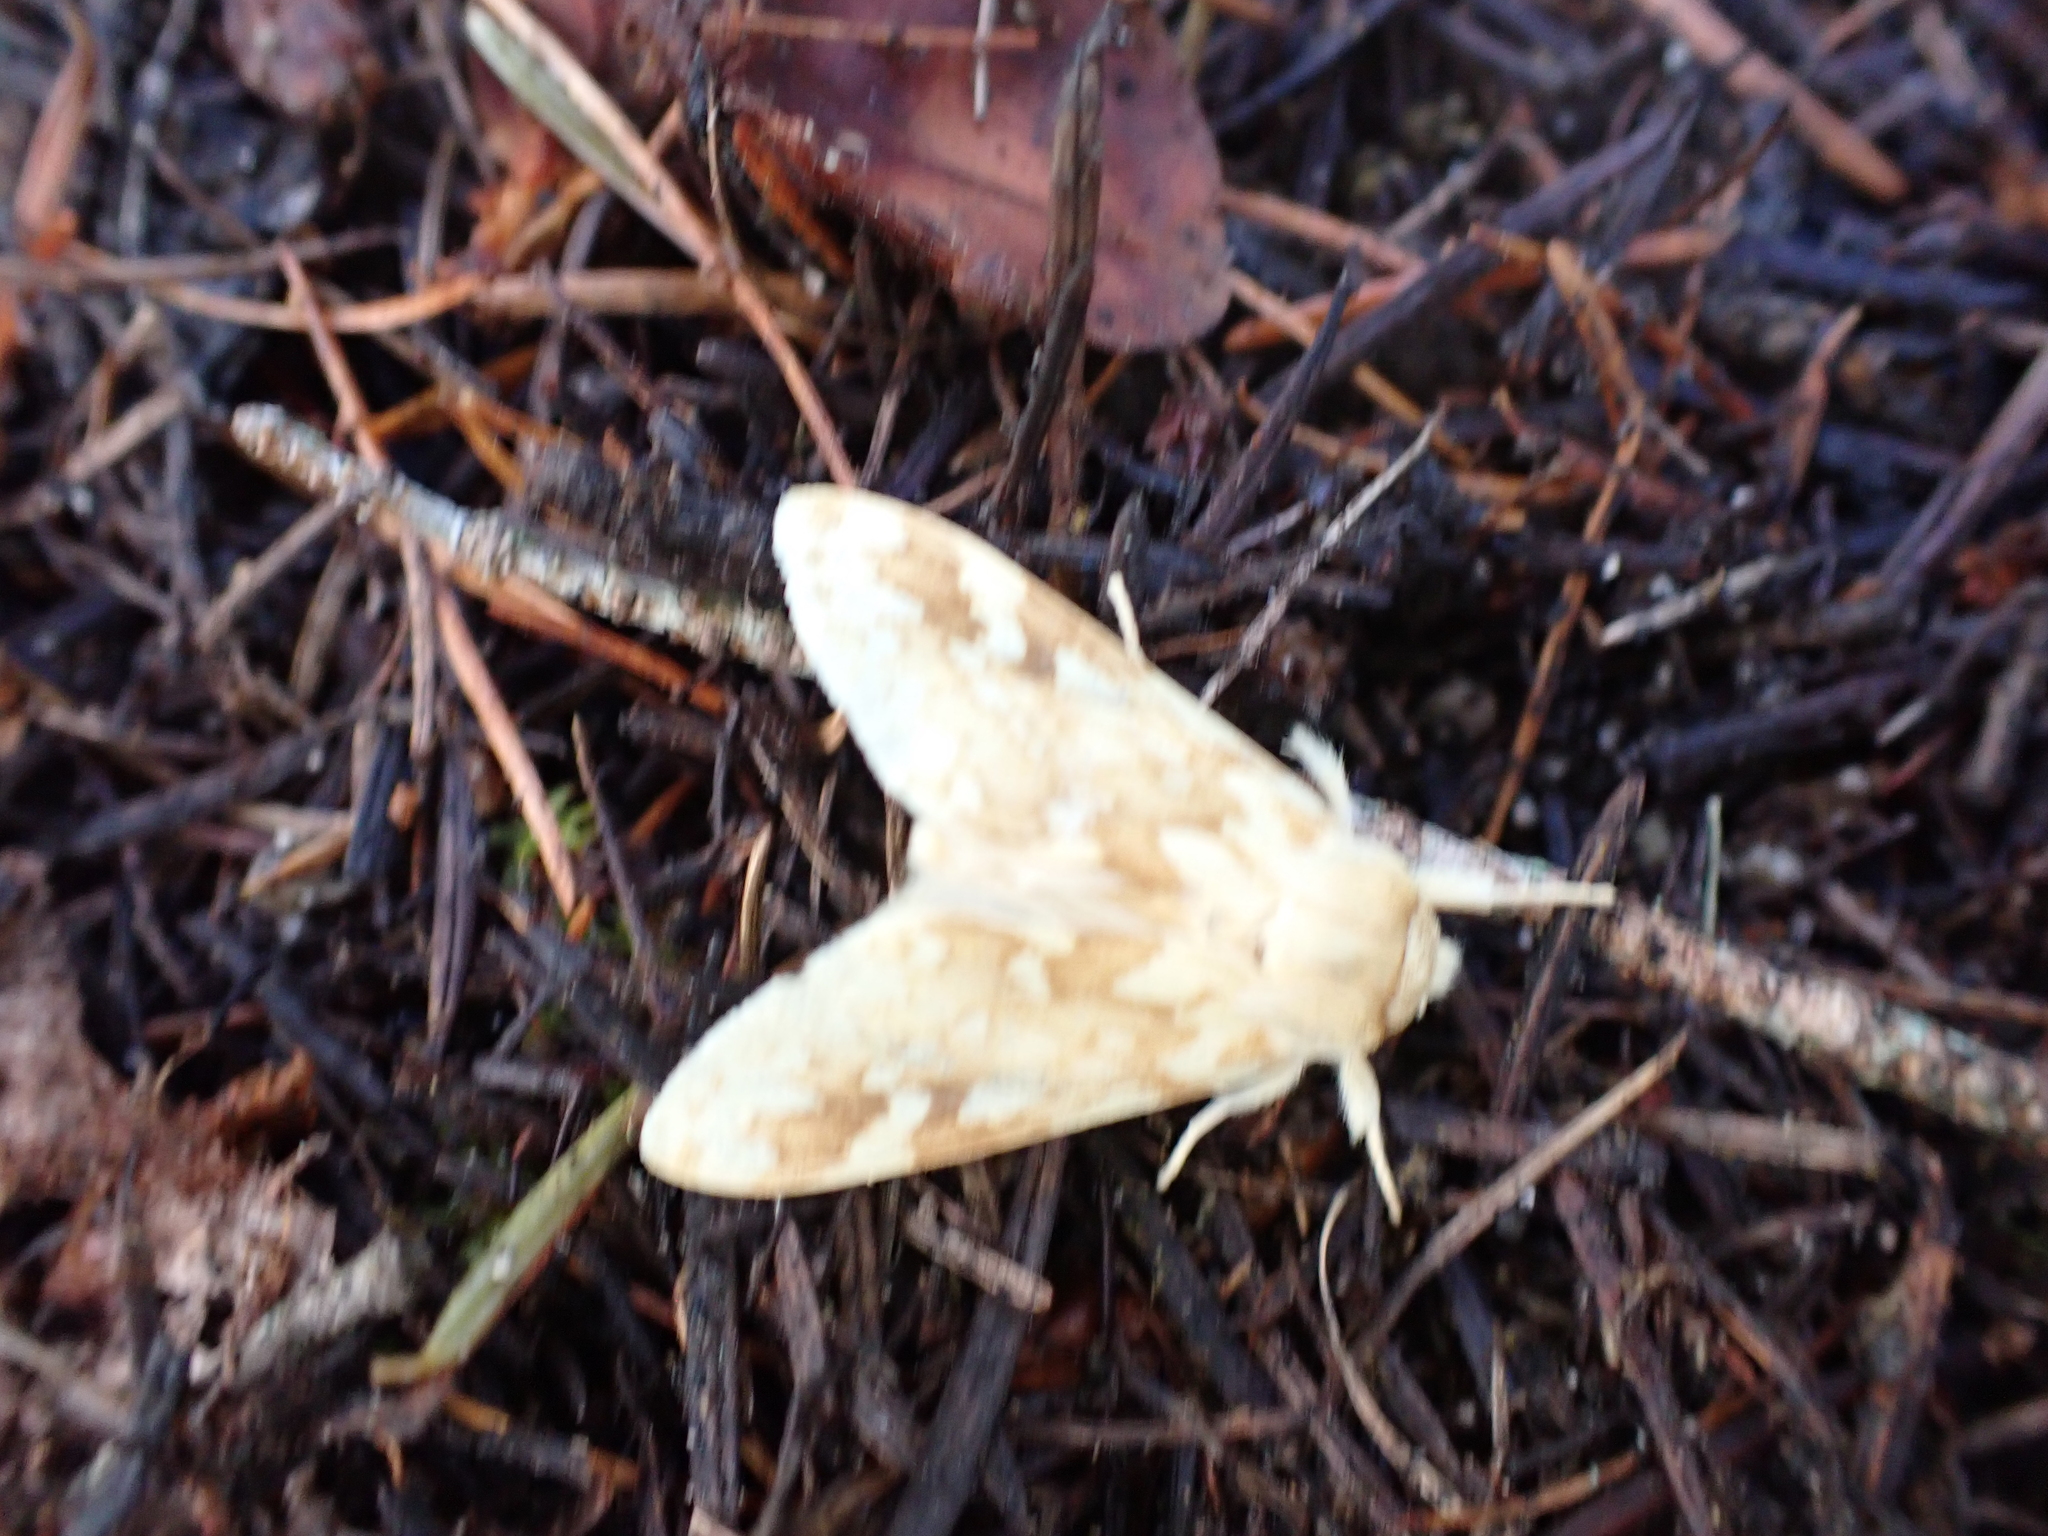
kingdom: Animalia
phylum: Arthropoda
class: Insecta
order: Lepidoptera
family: Erebidae
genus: Lophocampa
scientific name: Lophocampa maculata
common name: Spotted tussock moth
